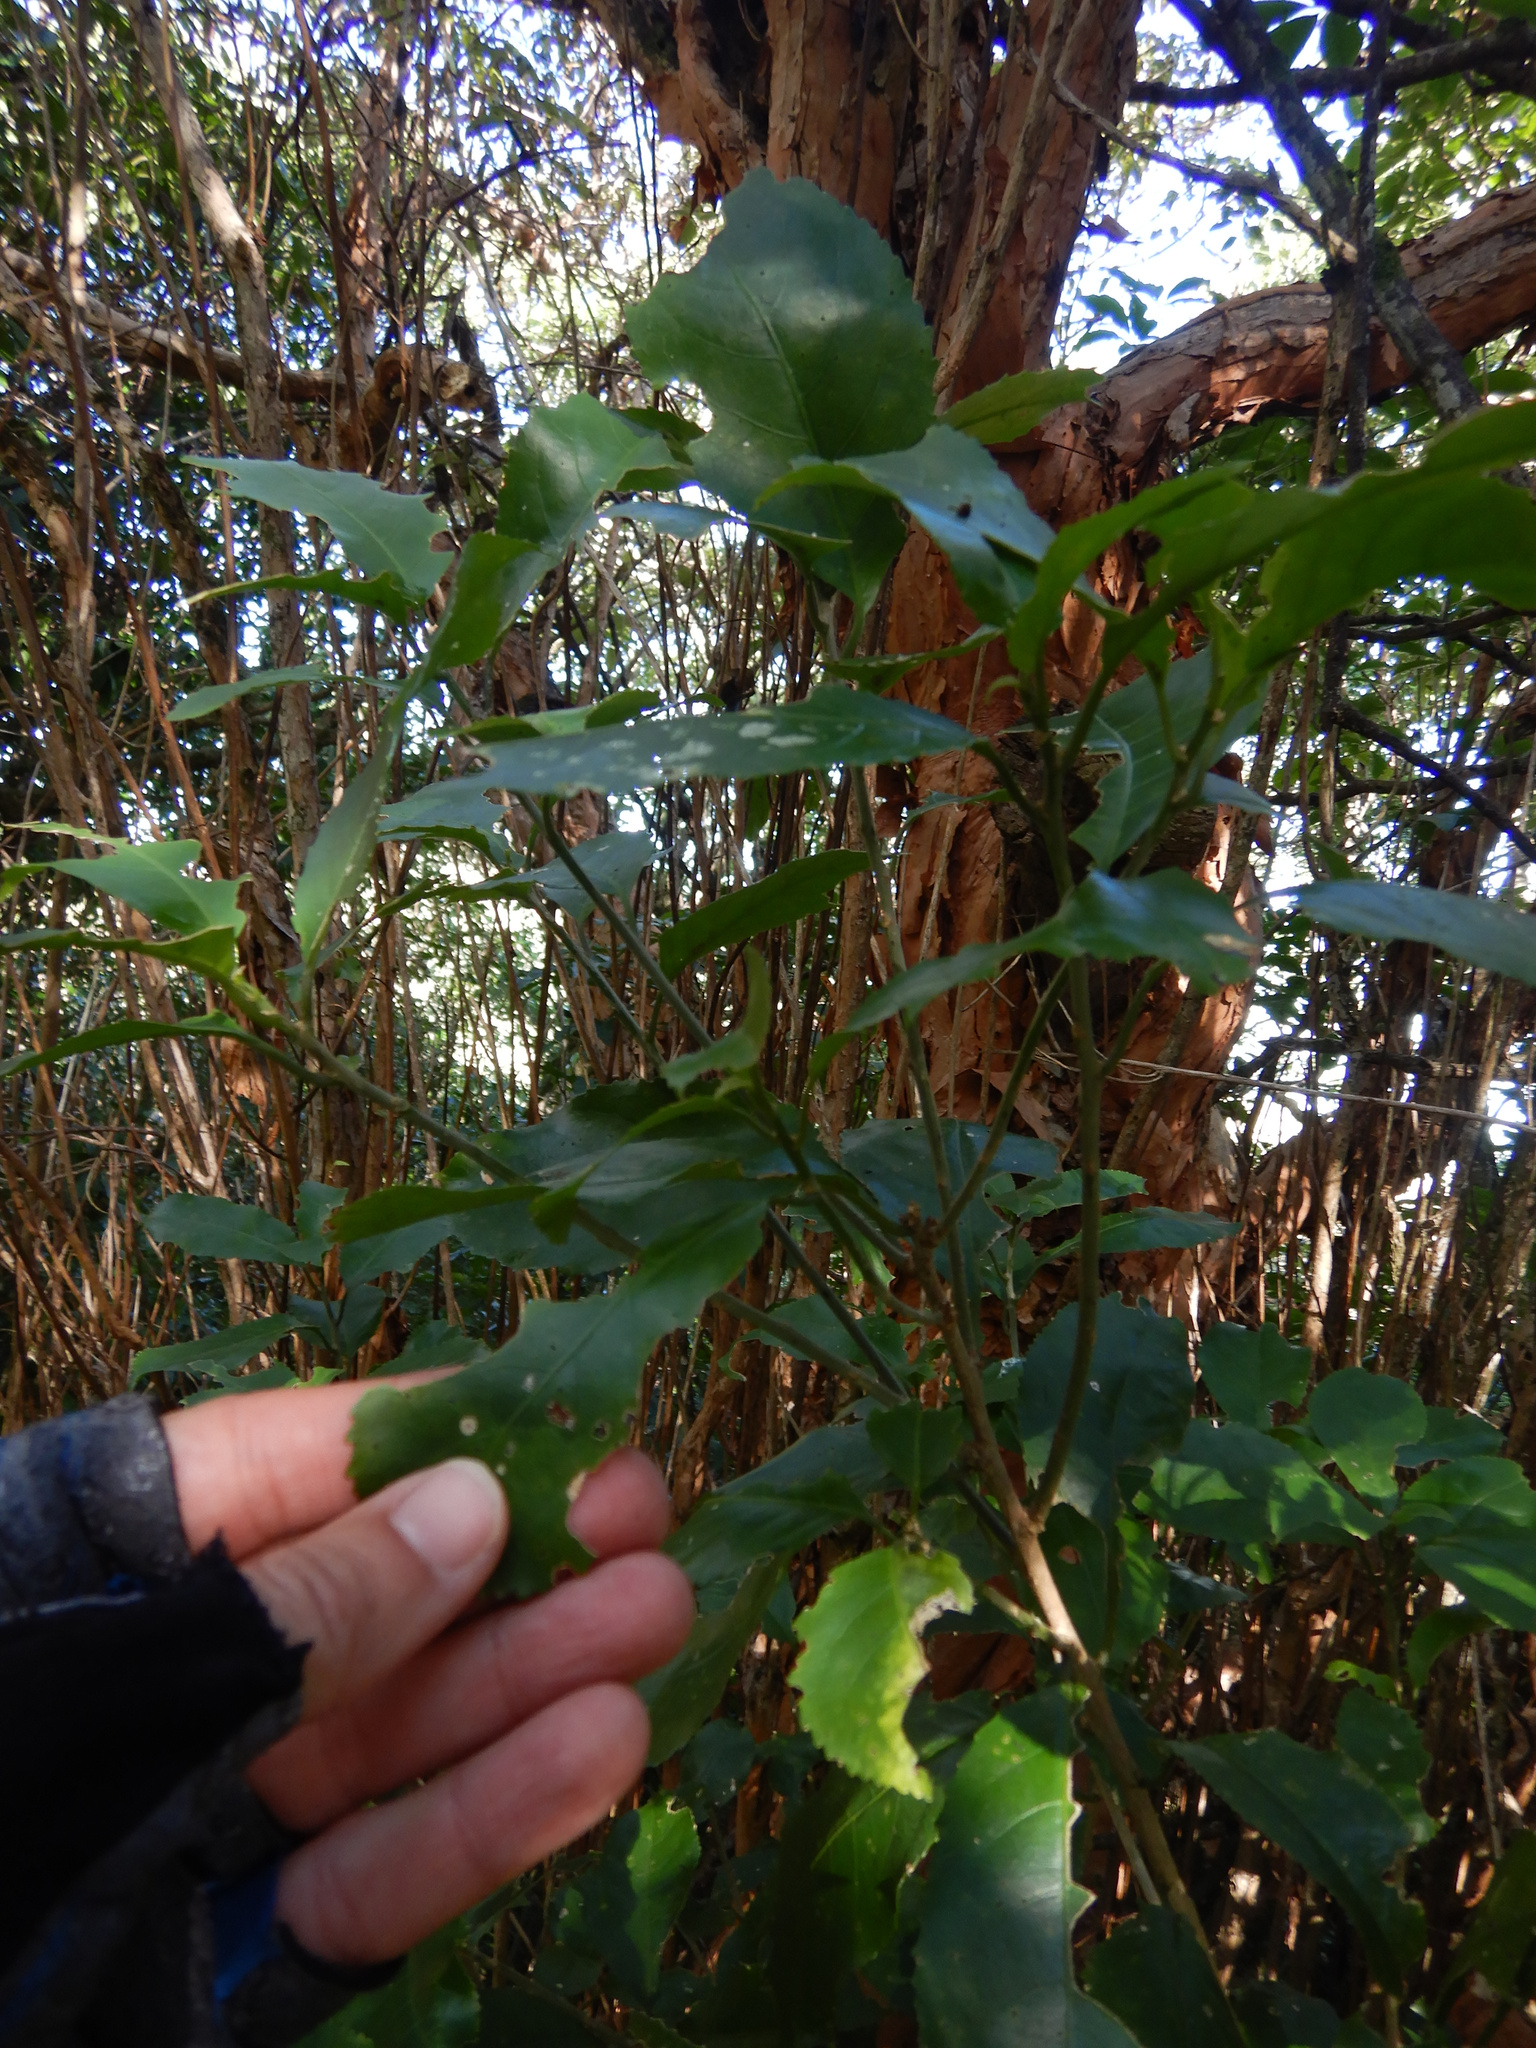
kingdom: Plantae
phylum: Tracheophyta
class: Magnoliopsida
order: Malpighiales
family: Violaceae
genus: Melicytus
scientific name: Melicytus ramiflorus
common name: Mahoe
